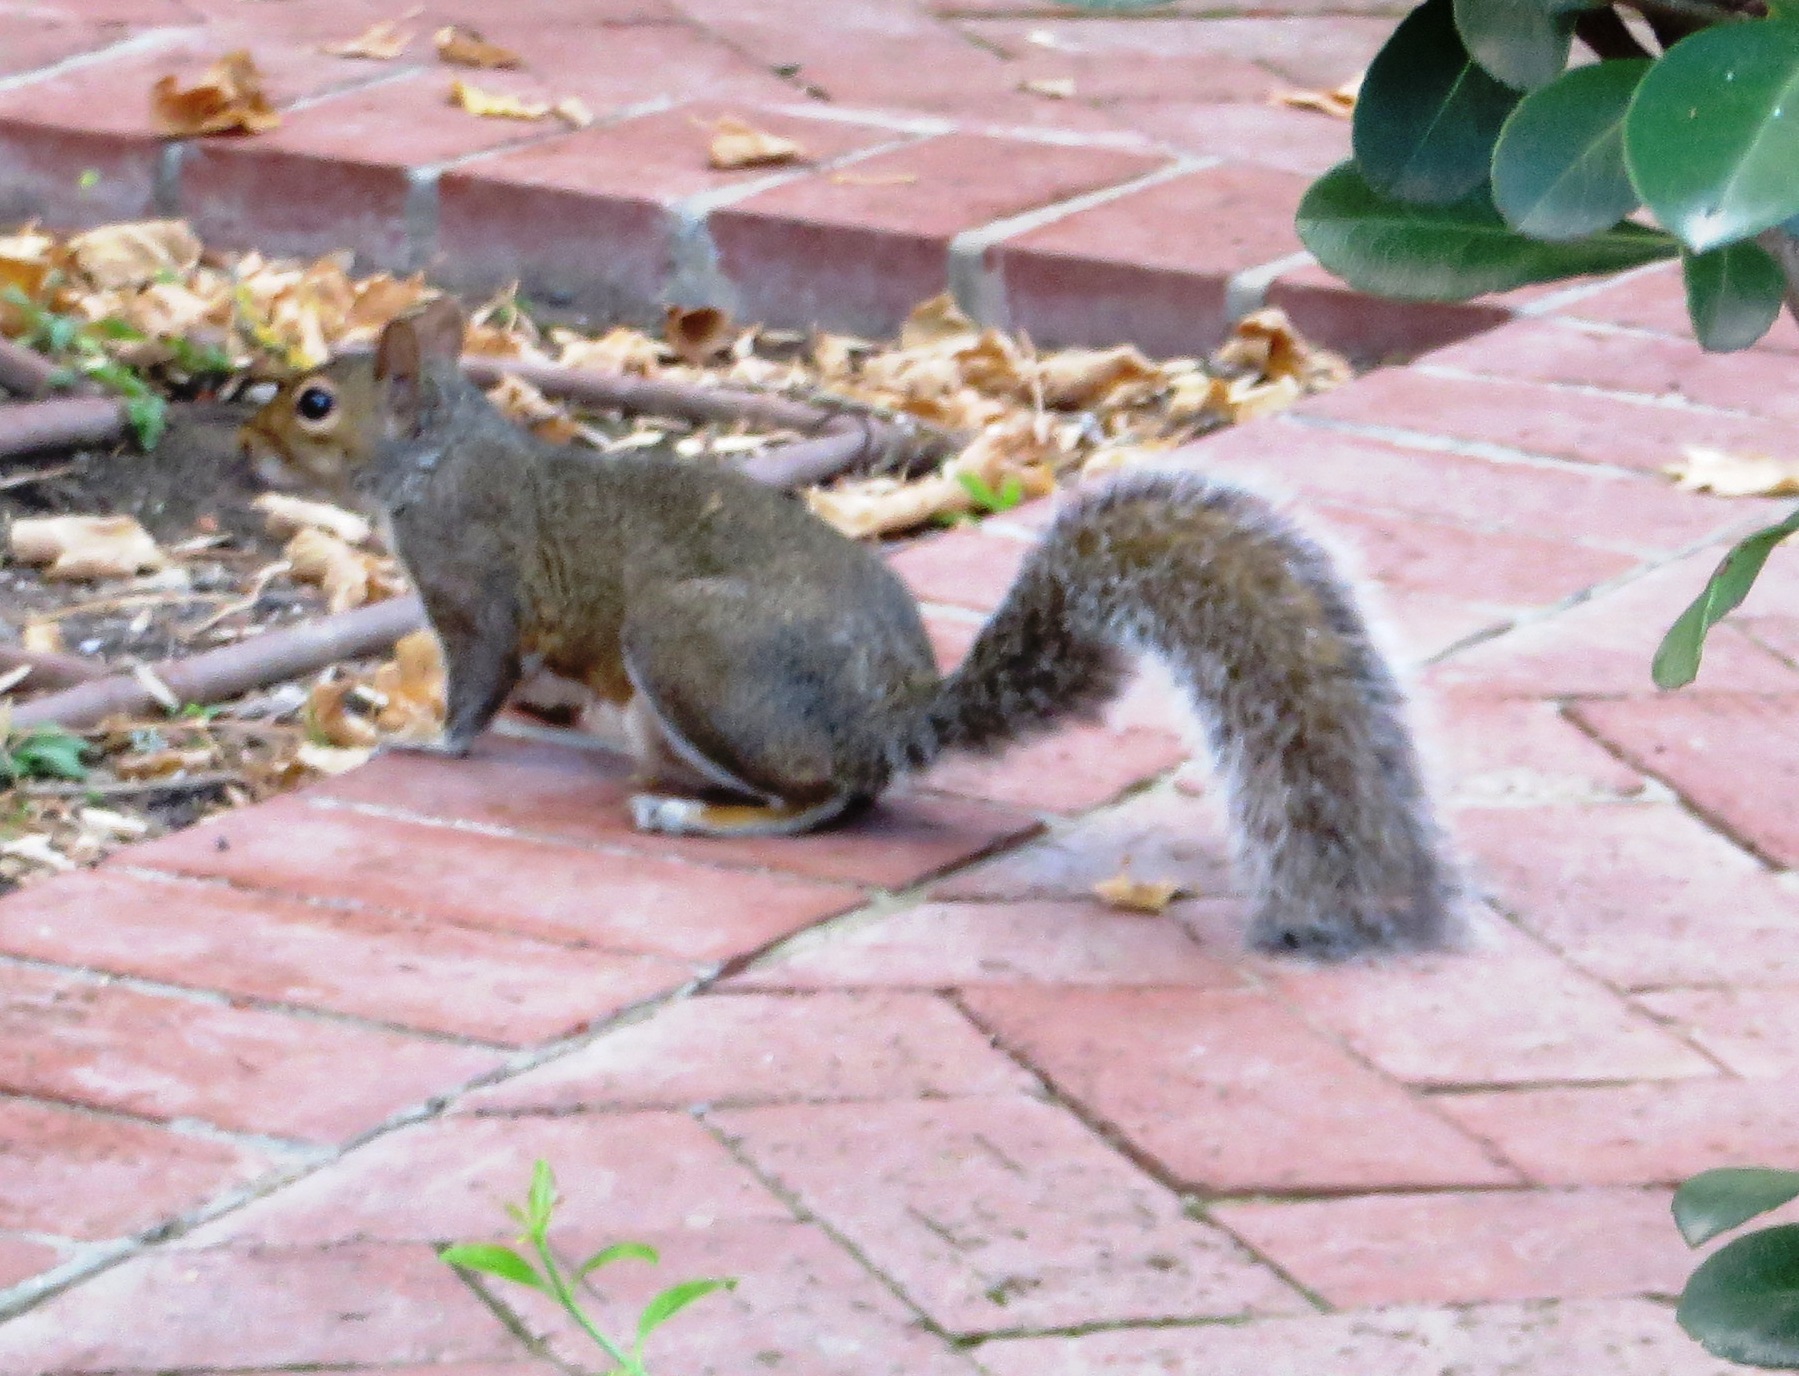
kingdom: Animalia
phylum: Chordata
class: Mammalia
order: Rodentia
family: Sciuridae
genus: Sciurus
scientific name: Sciurus carolinensis
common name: Eastern gray squirrel
